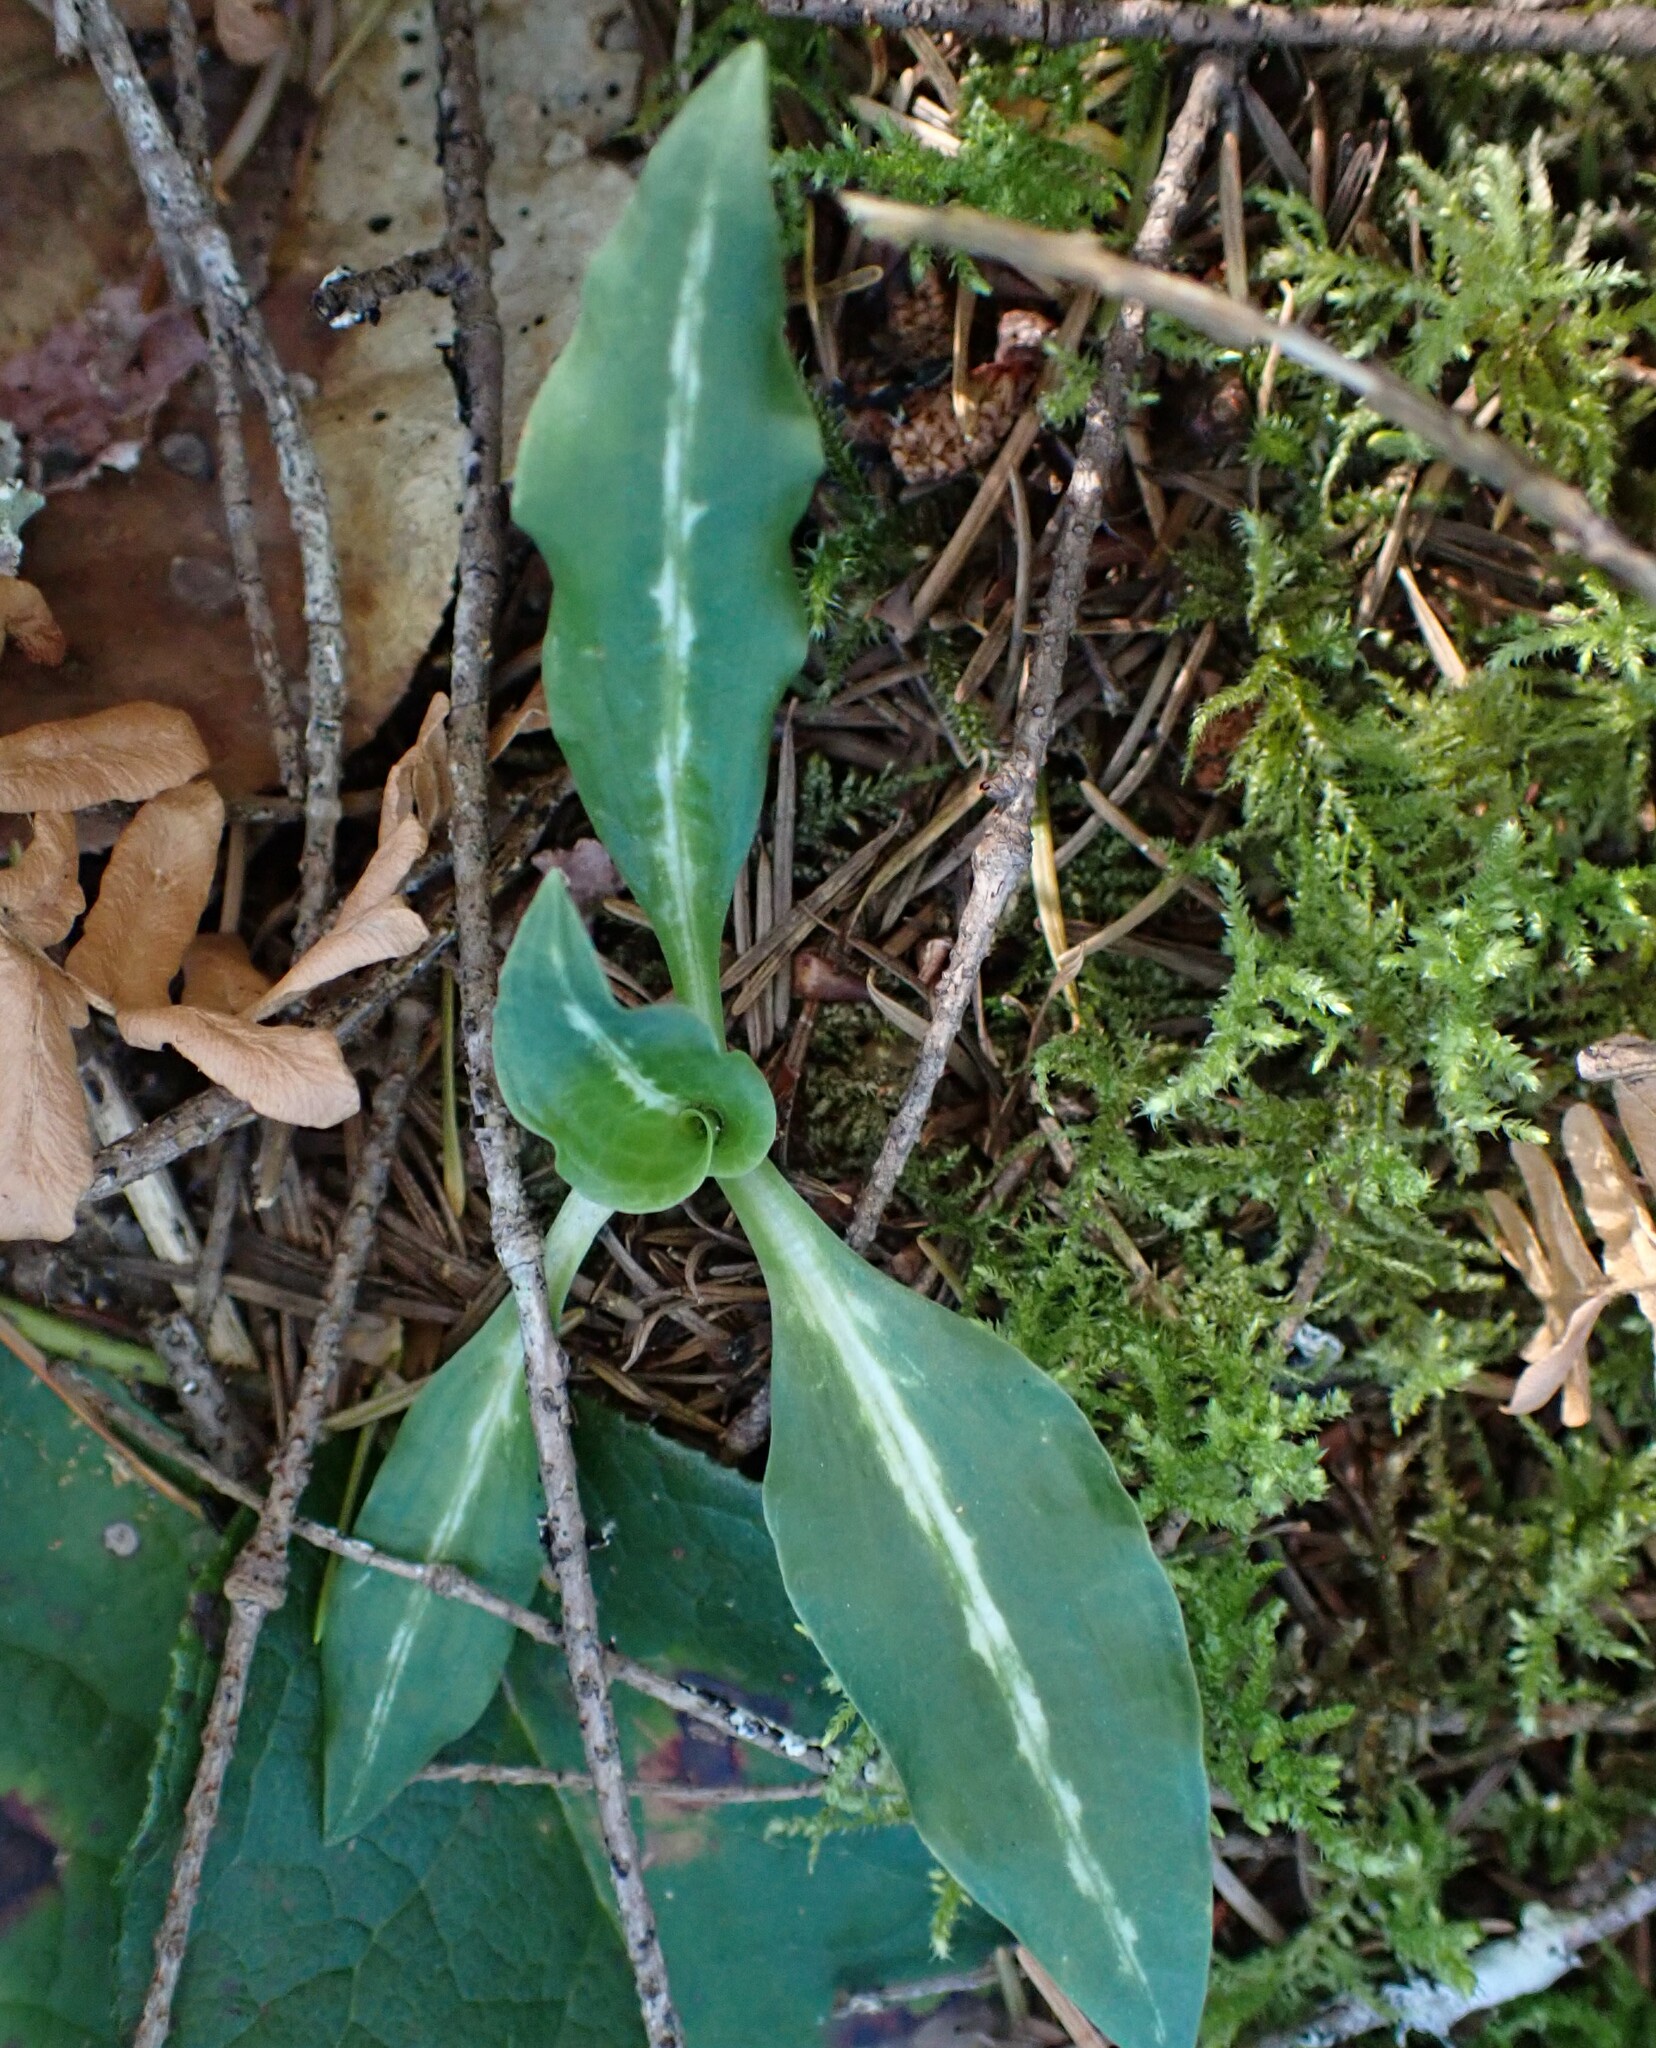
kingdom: Plantae
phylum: Tracheophyta
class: Liliopsida
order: Asparagales
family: Orchidaceae
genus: Goodyera
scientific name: Goodyera oblongifolia
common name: Giant rattlesnake-plantain
